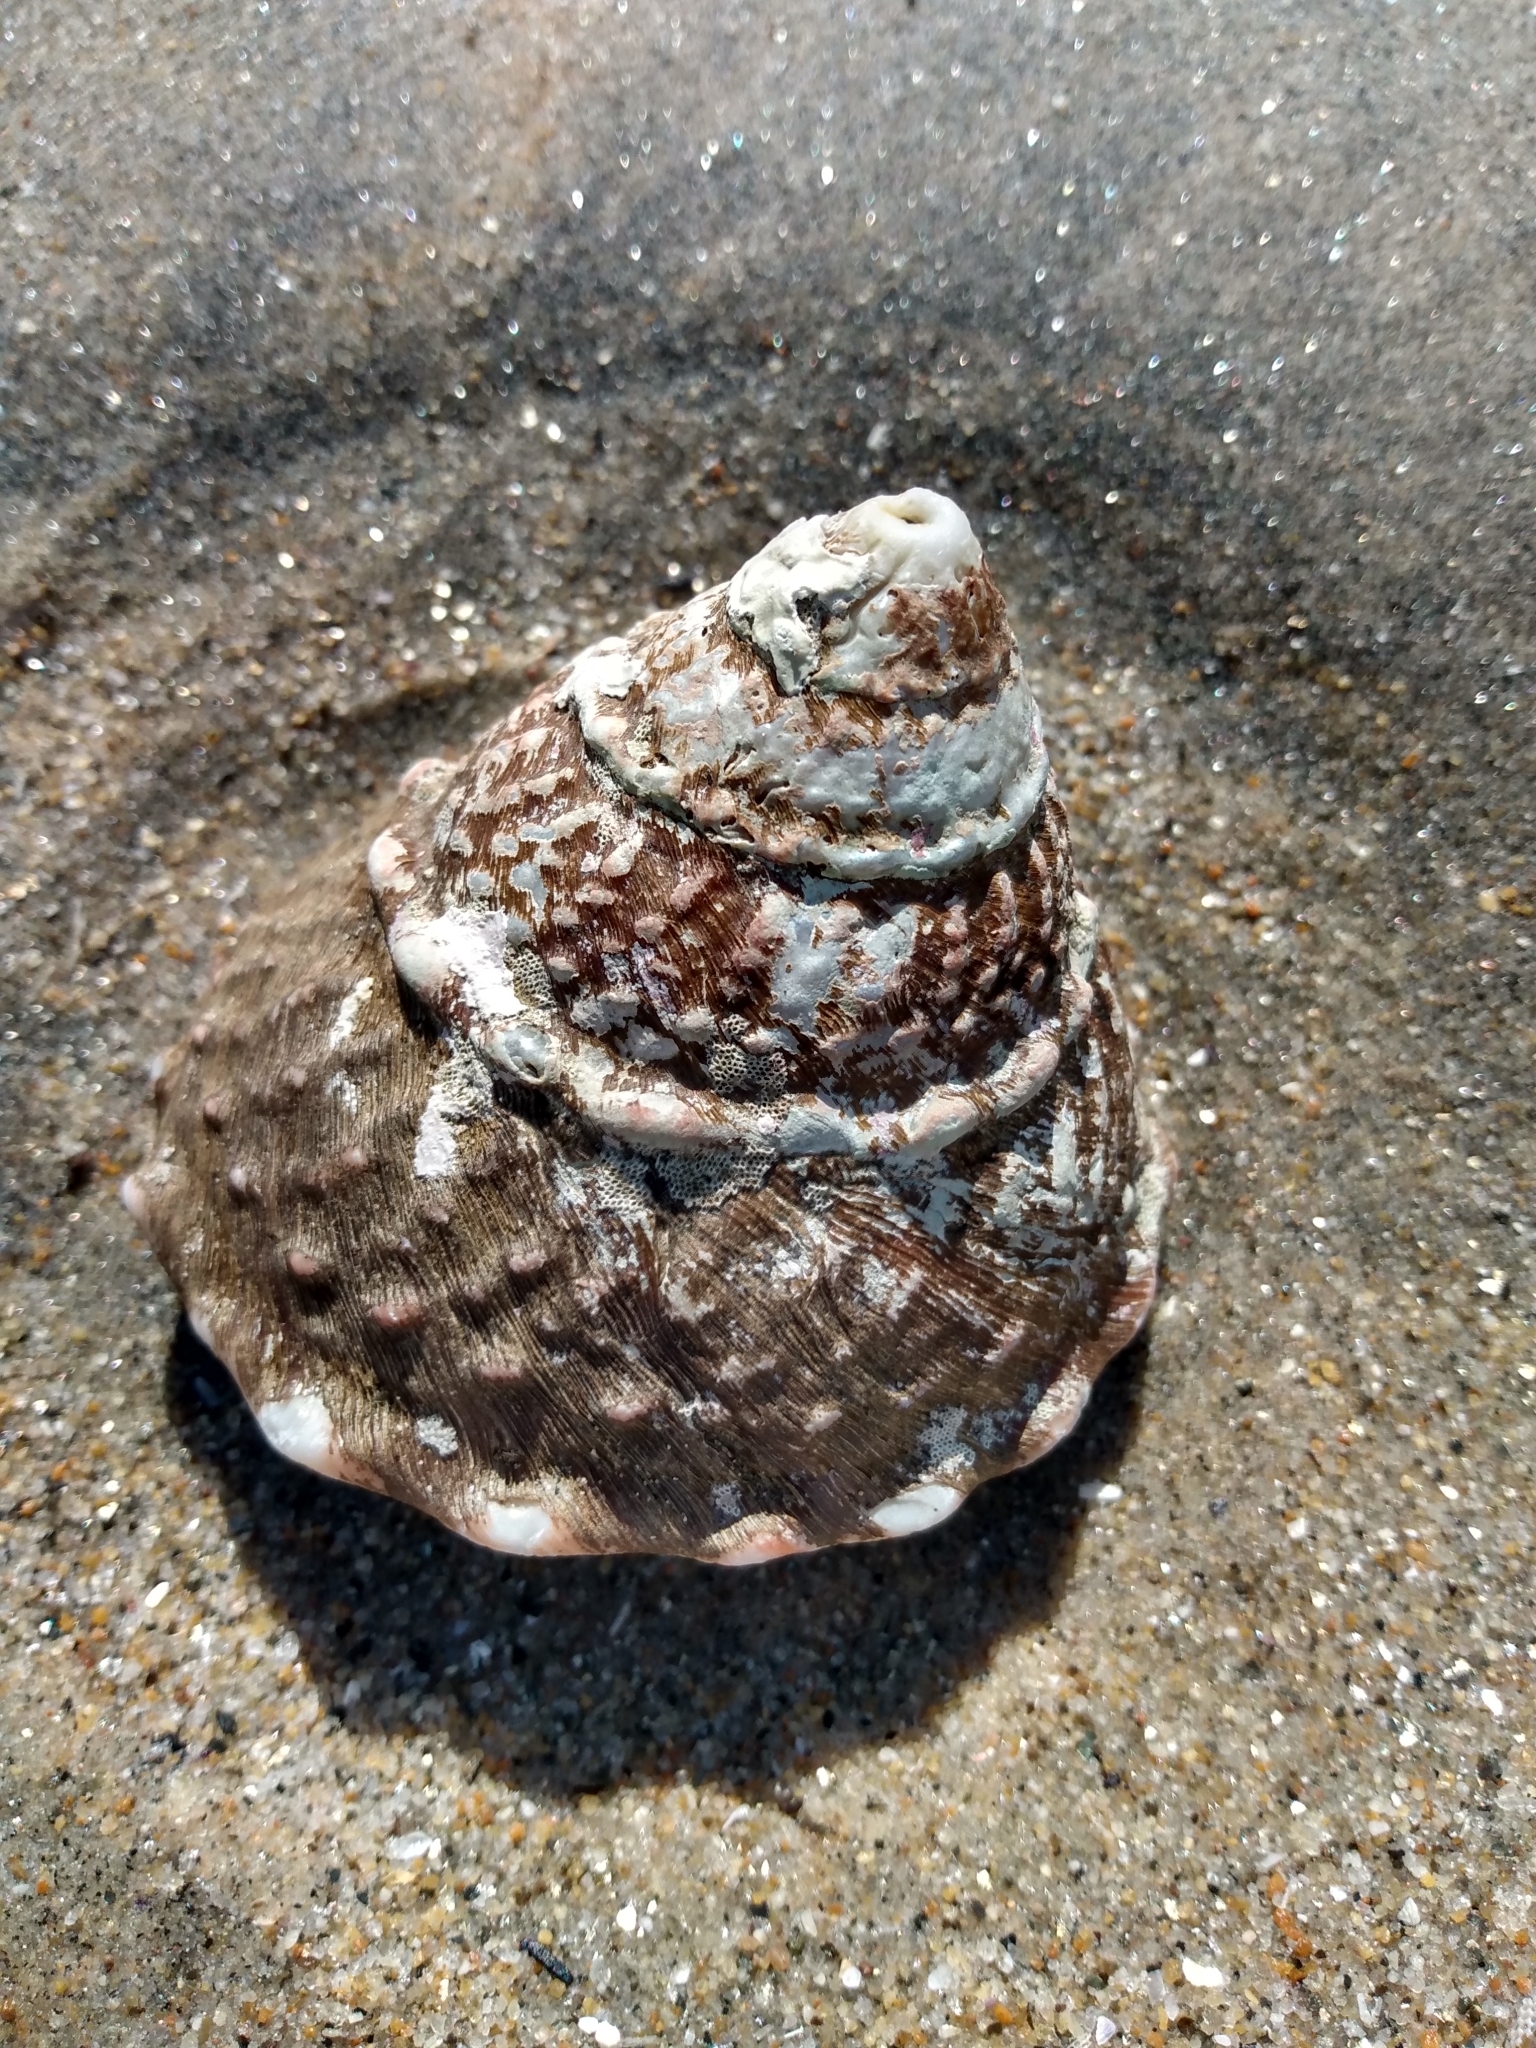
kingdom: Animalia
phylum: Mollusca
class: Gastropoda
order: Trochida
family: Turbinidae
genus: Megastraea
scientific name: Megastraea undosa
